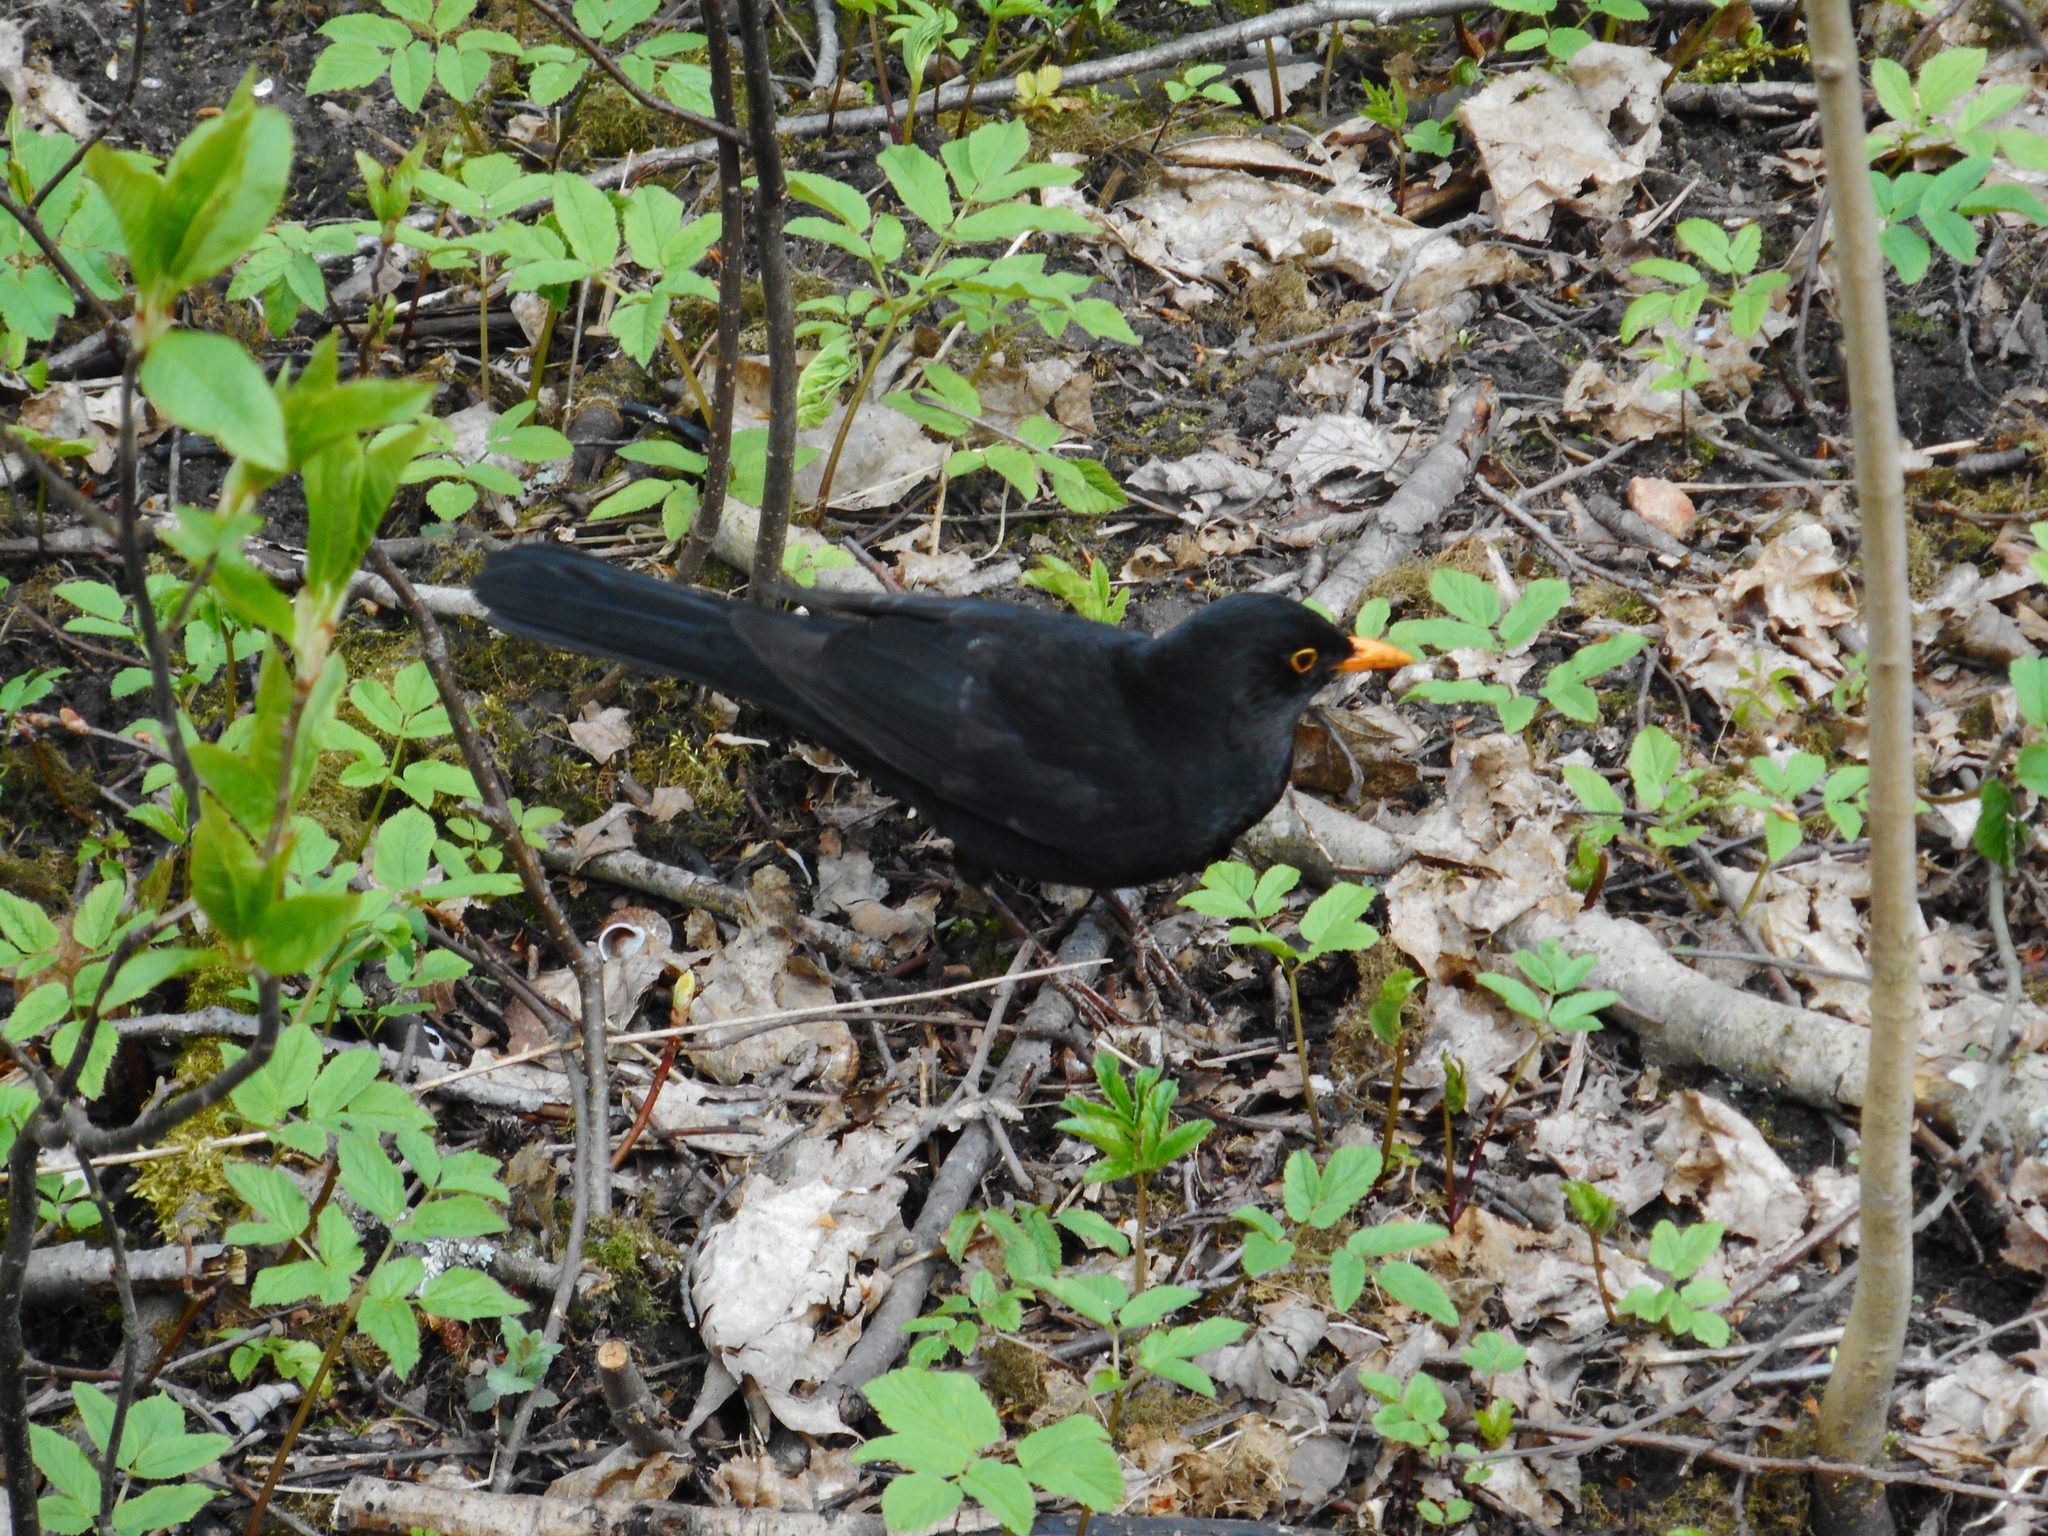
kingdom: Animalia
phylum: Chordata
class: Aves
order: Passeriformes
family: Turdidae
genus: Turdus
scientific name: Turdus merula
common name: Common blackbird
